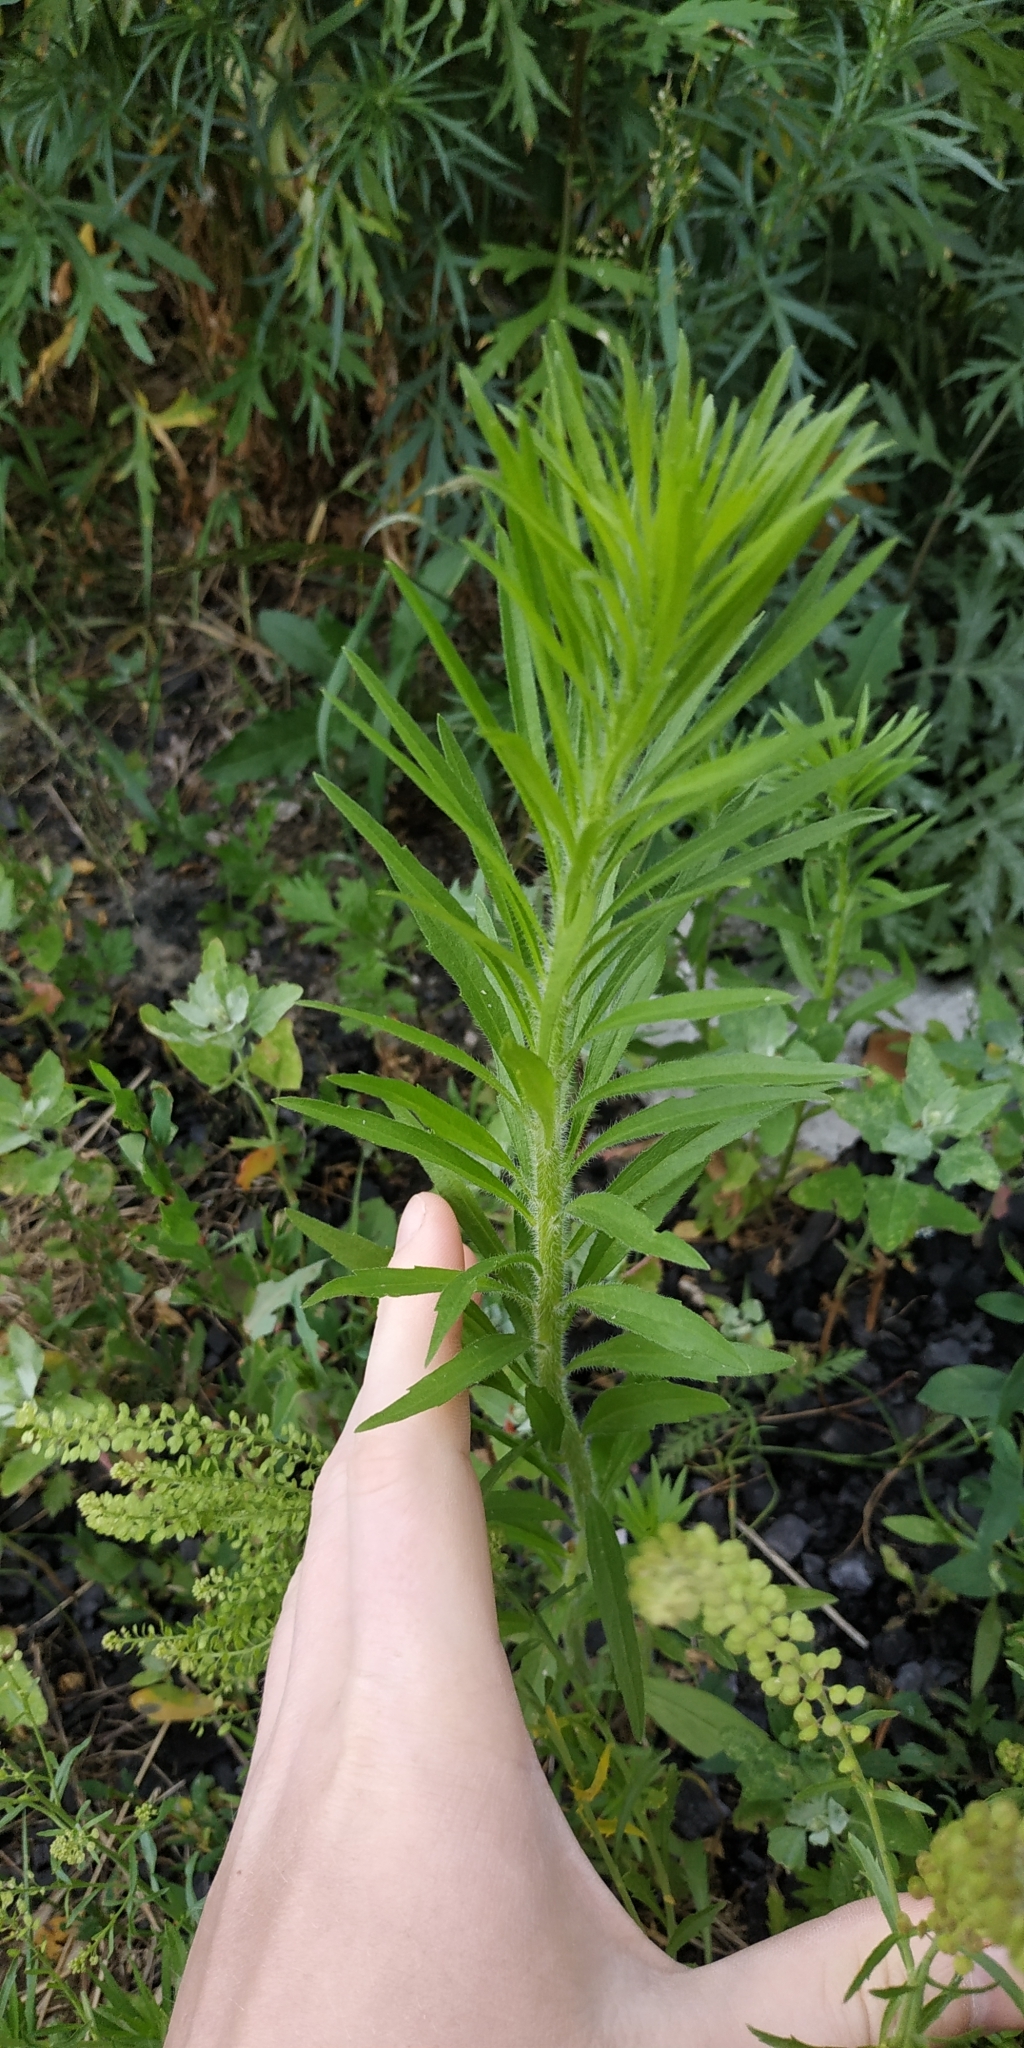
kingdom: Plantae
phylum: Tracheophyta
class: Magnoliopsida
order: Asterales
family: Asteraceae
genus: Erigeron
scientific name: Erigeron canadensis
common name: Canadian fleabane
